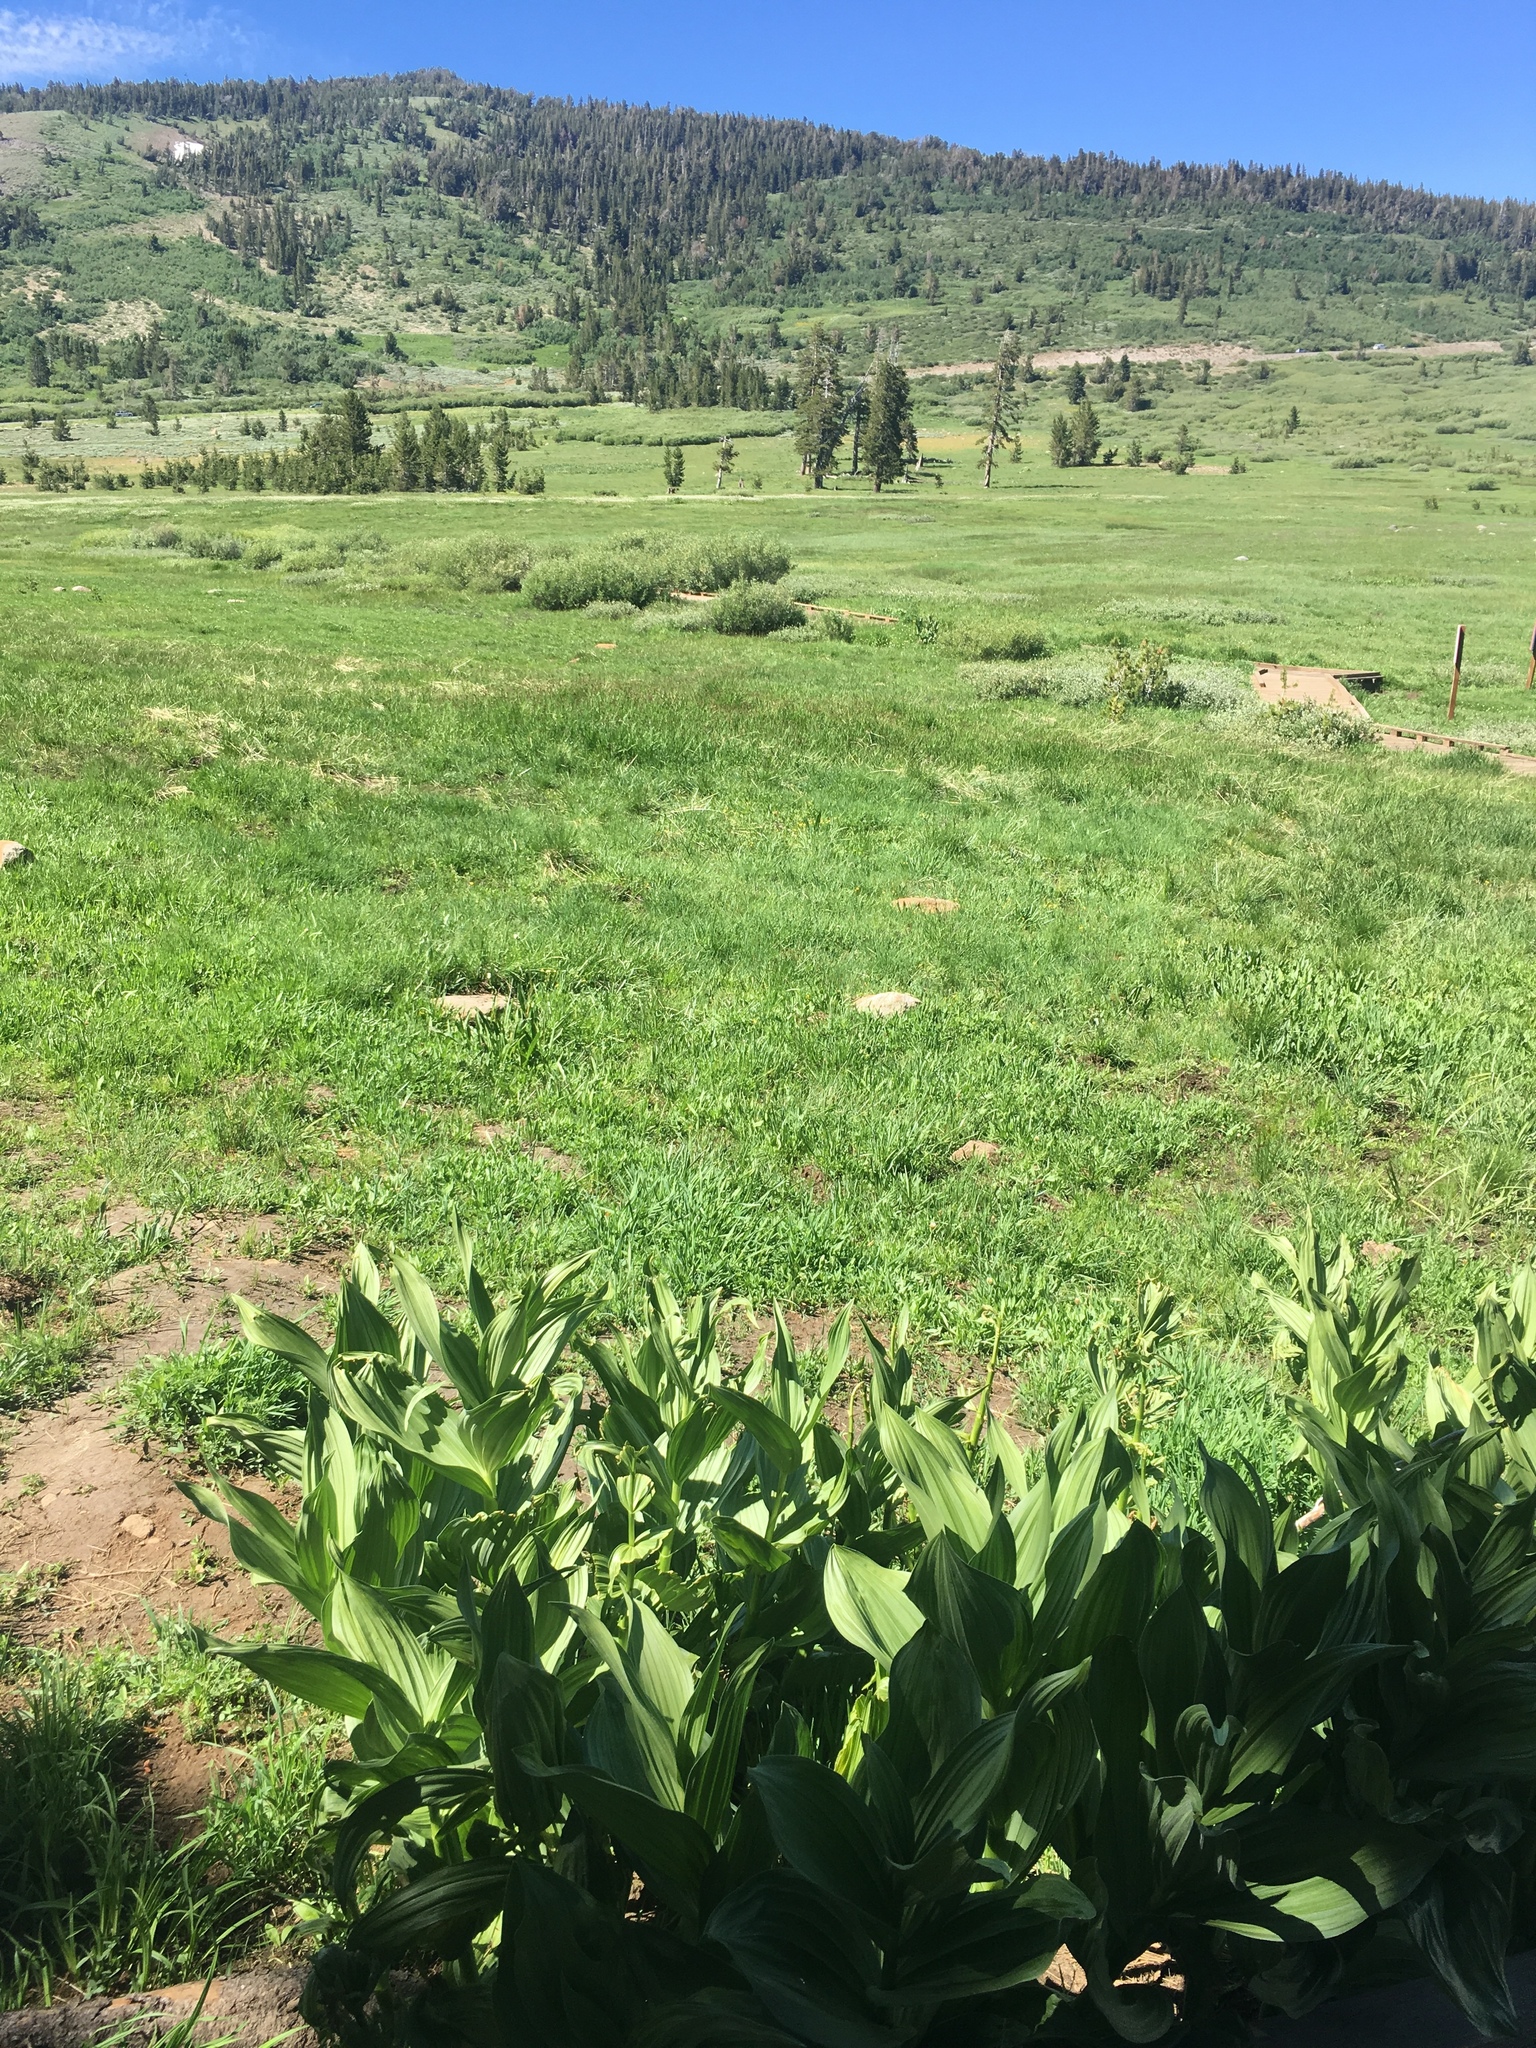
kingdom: Plantae
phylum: Tracheophyta
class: Liliopsida
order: Liliales
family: Melanthiaceae
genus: Veratrum
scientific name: Veratrum californicum
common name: California veratrum
